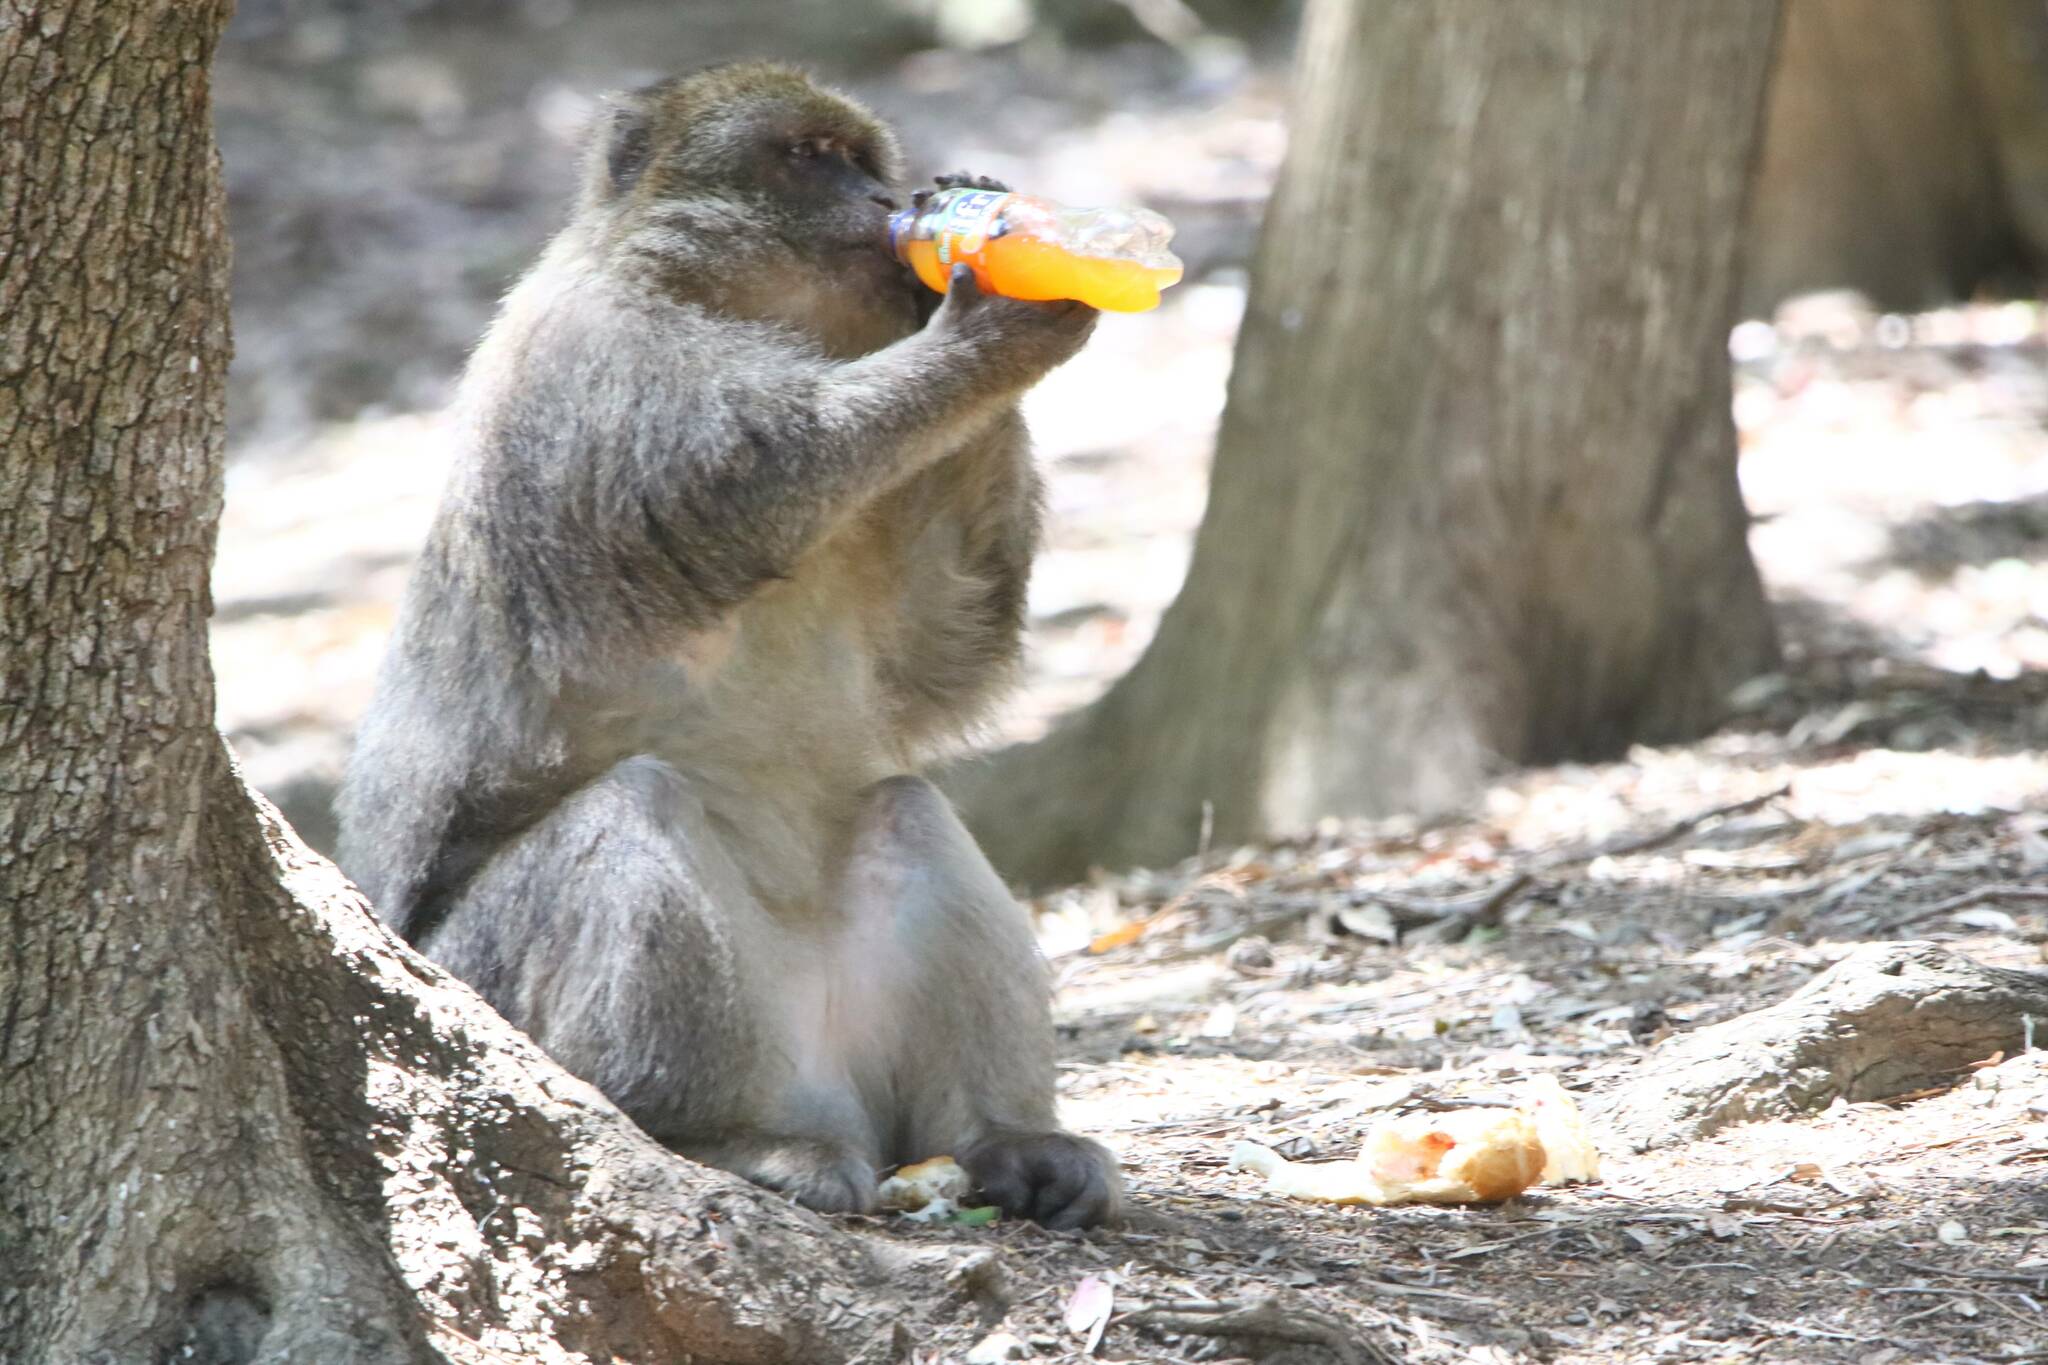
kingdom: Animalia
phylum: Chordata
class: Mammalia
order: Primates
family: Cercopithecidae
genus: Macaca
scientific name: Macaca sylvanus
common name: Barbary macaque
